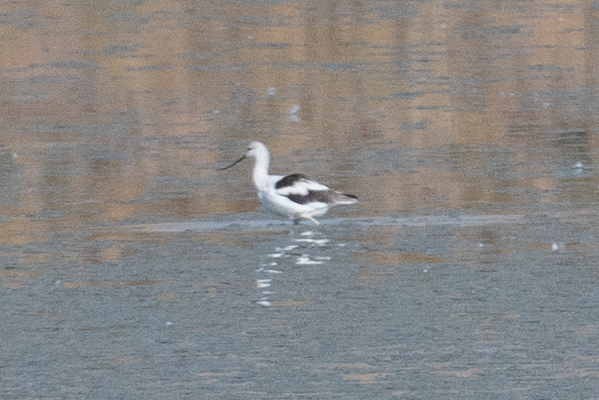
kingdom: Animalia
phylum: Chordata
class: Aves
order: Charadriiformes
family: Recurvirostridae
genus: Recurvirostra
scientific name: Recurvirostra americana
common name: American avocet
